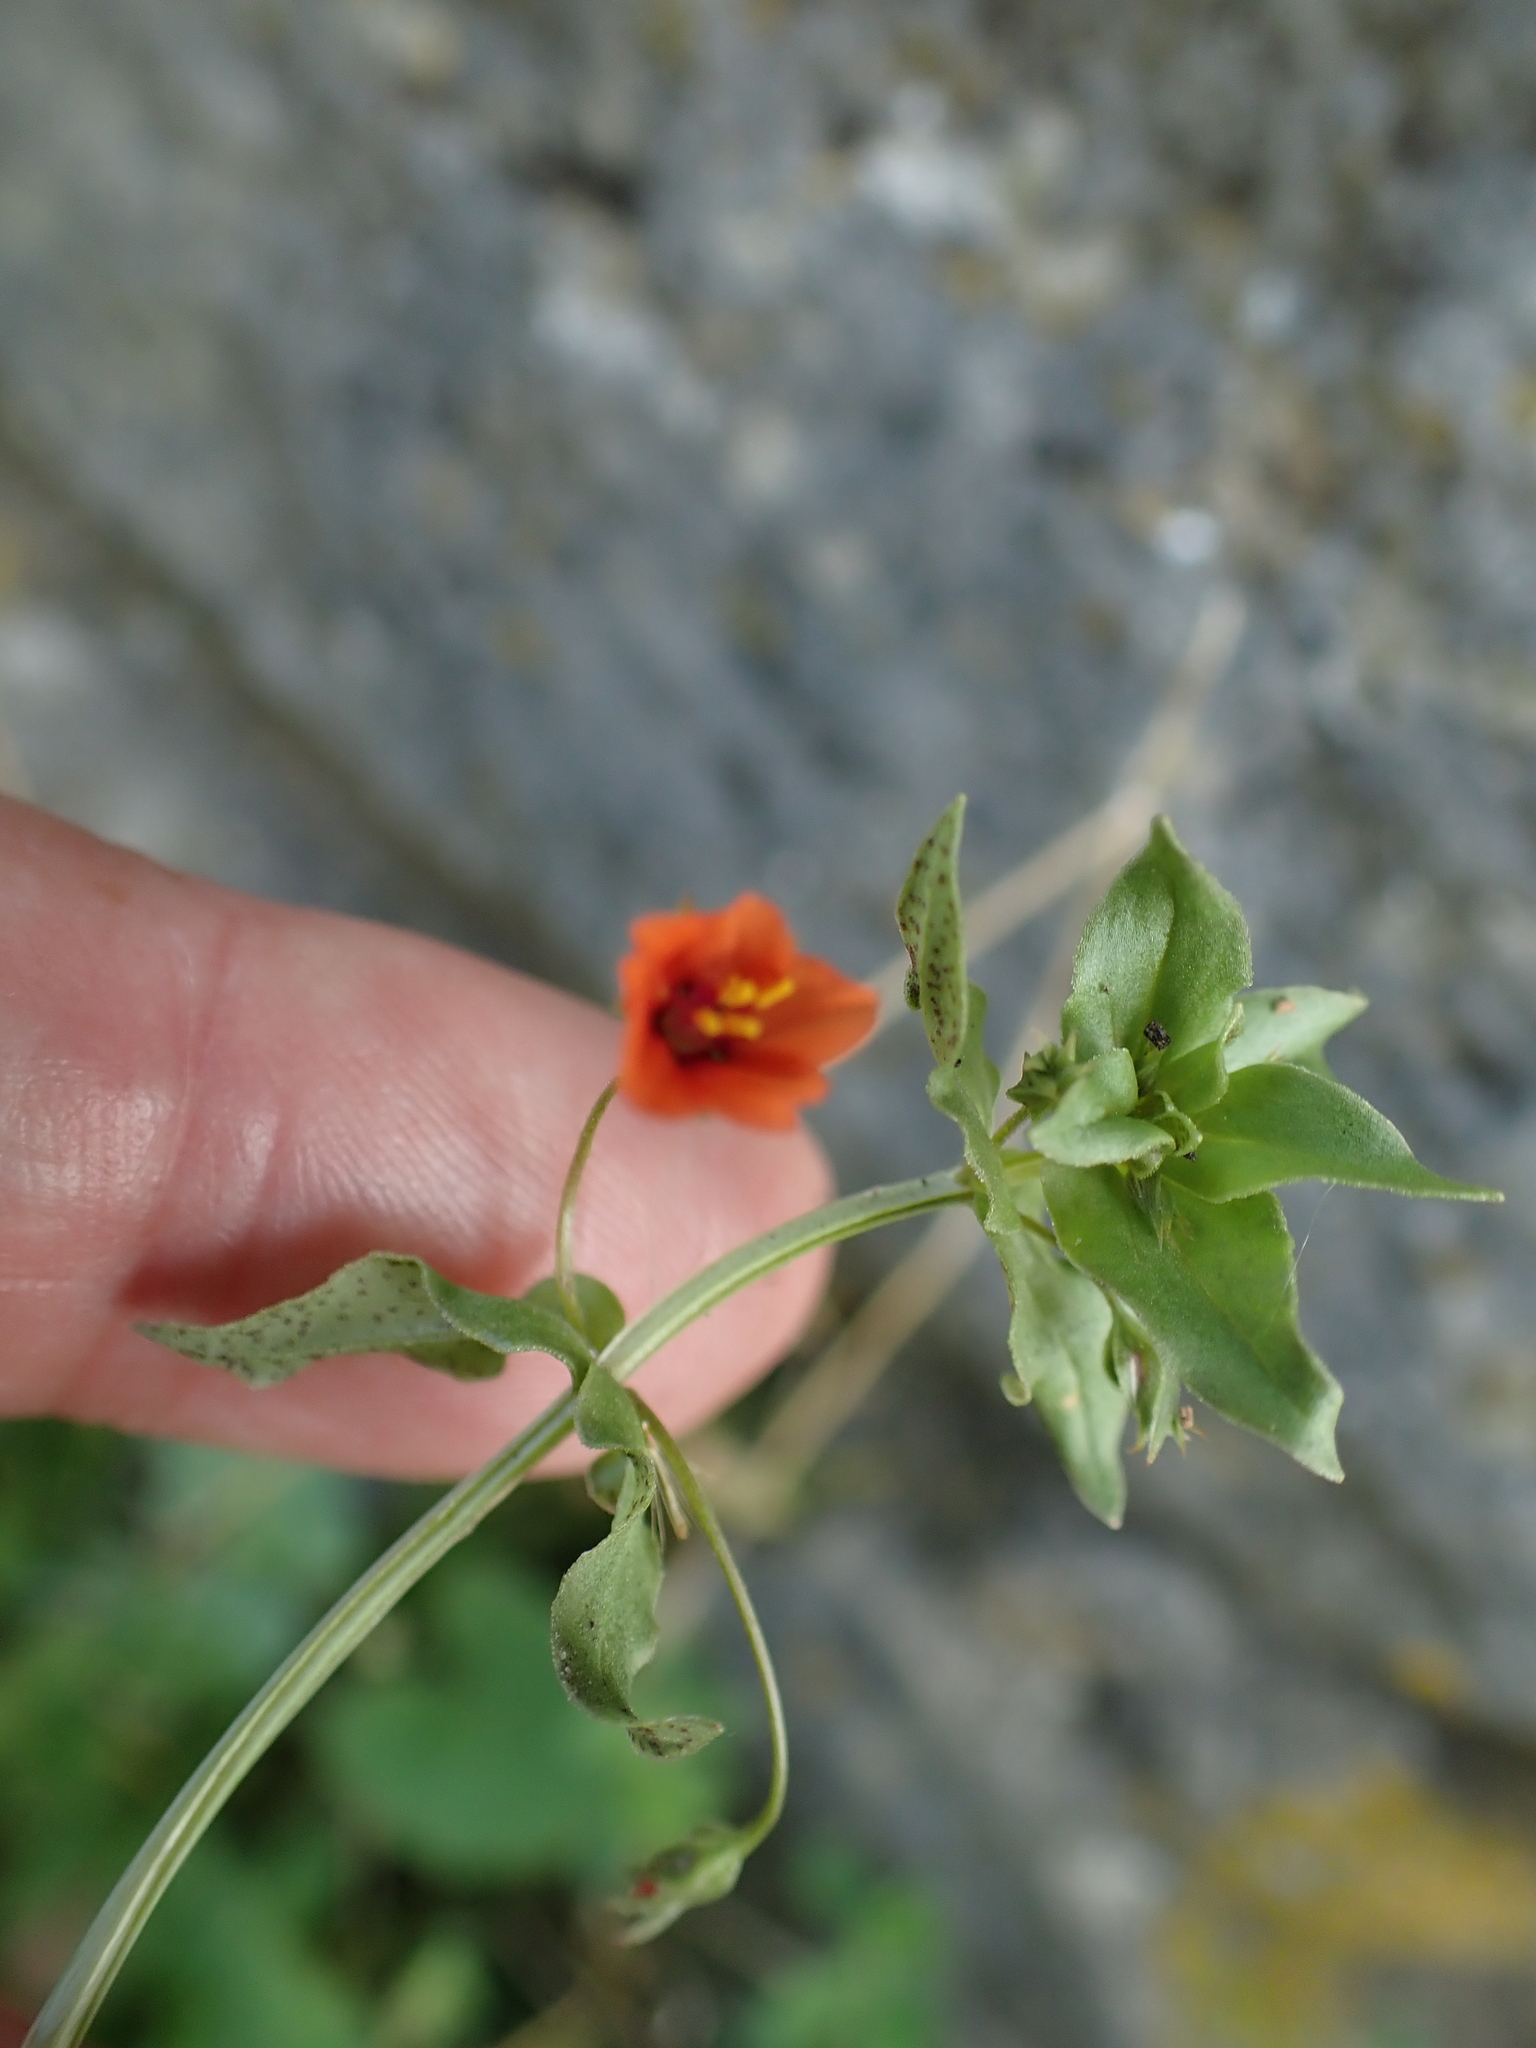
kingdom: Plantae
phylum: Tracheophyta
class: Magnoliopsida
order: Ericales
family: Primulaceae
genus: Lysimachia
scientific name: Lysimachia arvensis
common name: Scarlet pimpernel
